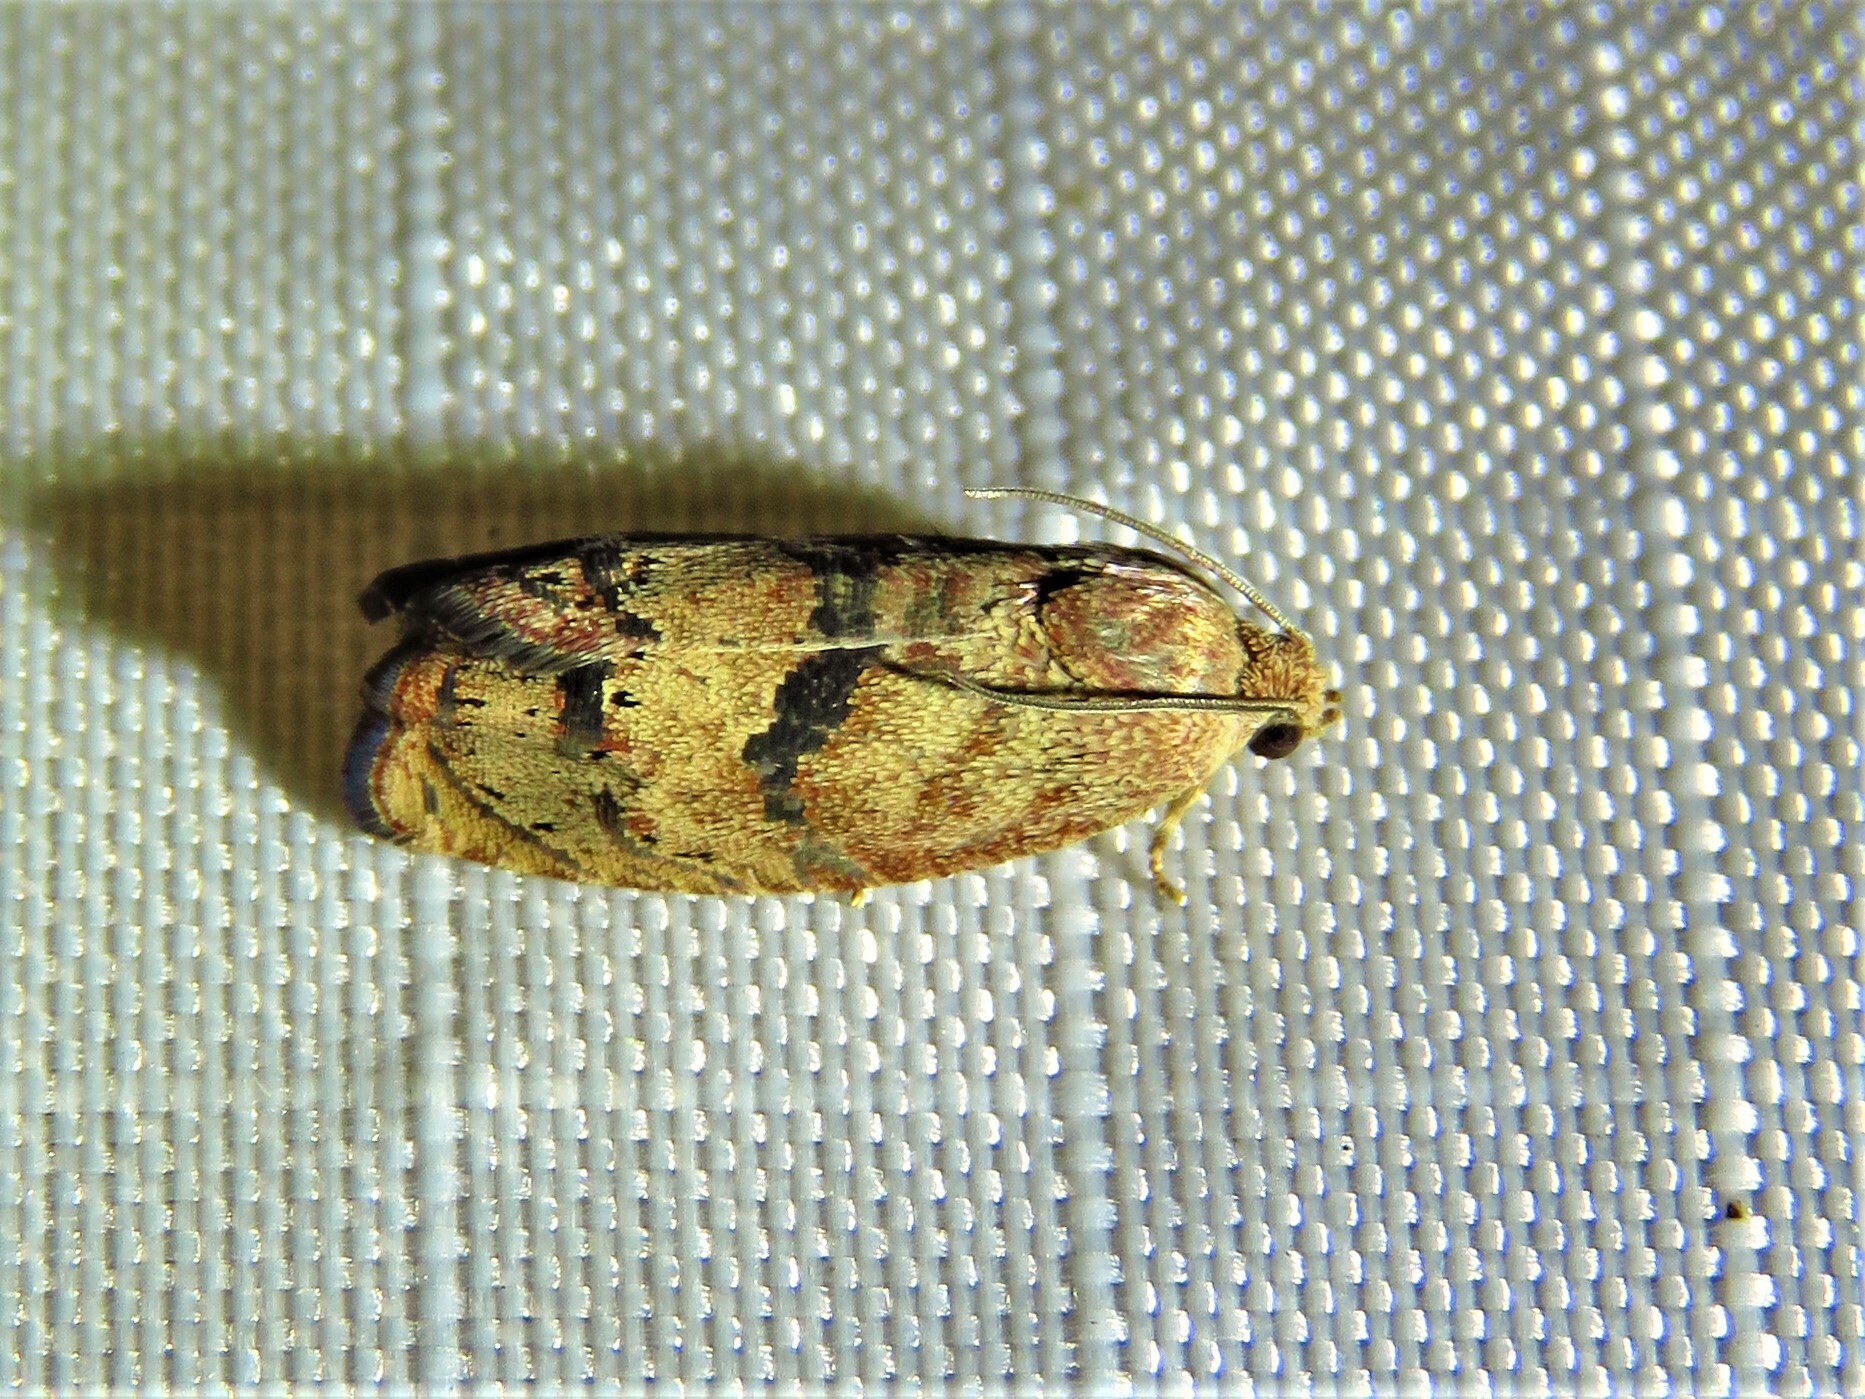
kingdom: Animalia
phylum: Arthropoda
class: Insecta
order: Lepidoptera
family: Tortricidae
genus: Cydia
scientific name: Cydia latiferreana
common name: Filbertworm moth
